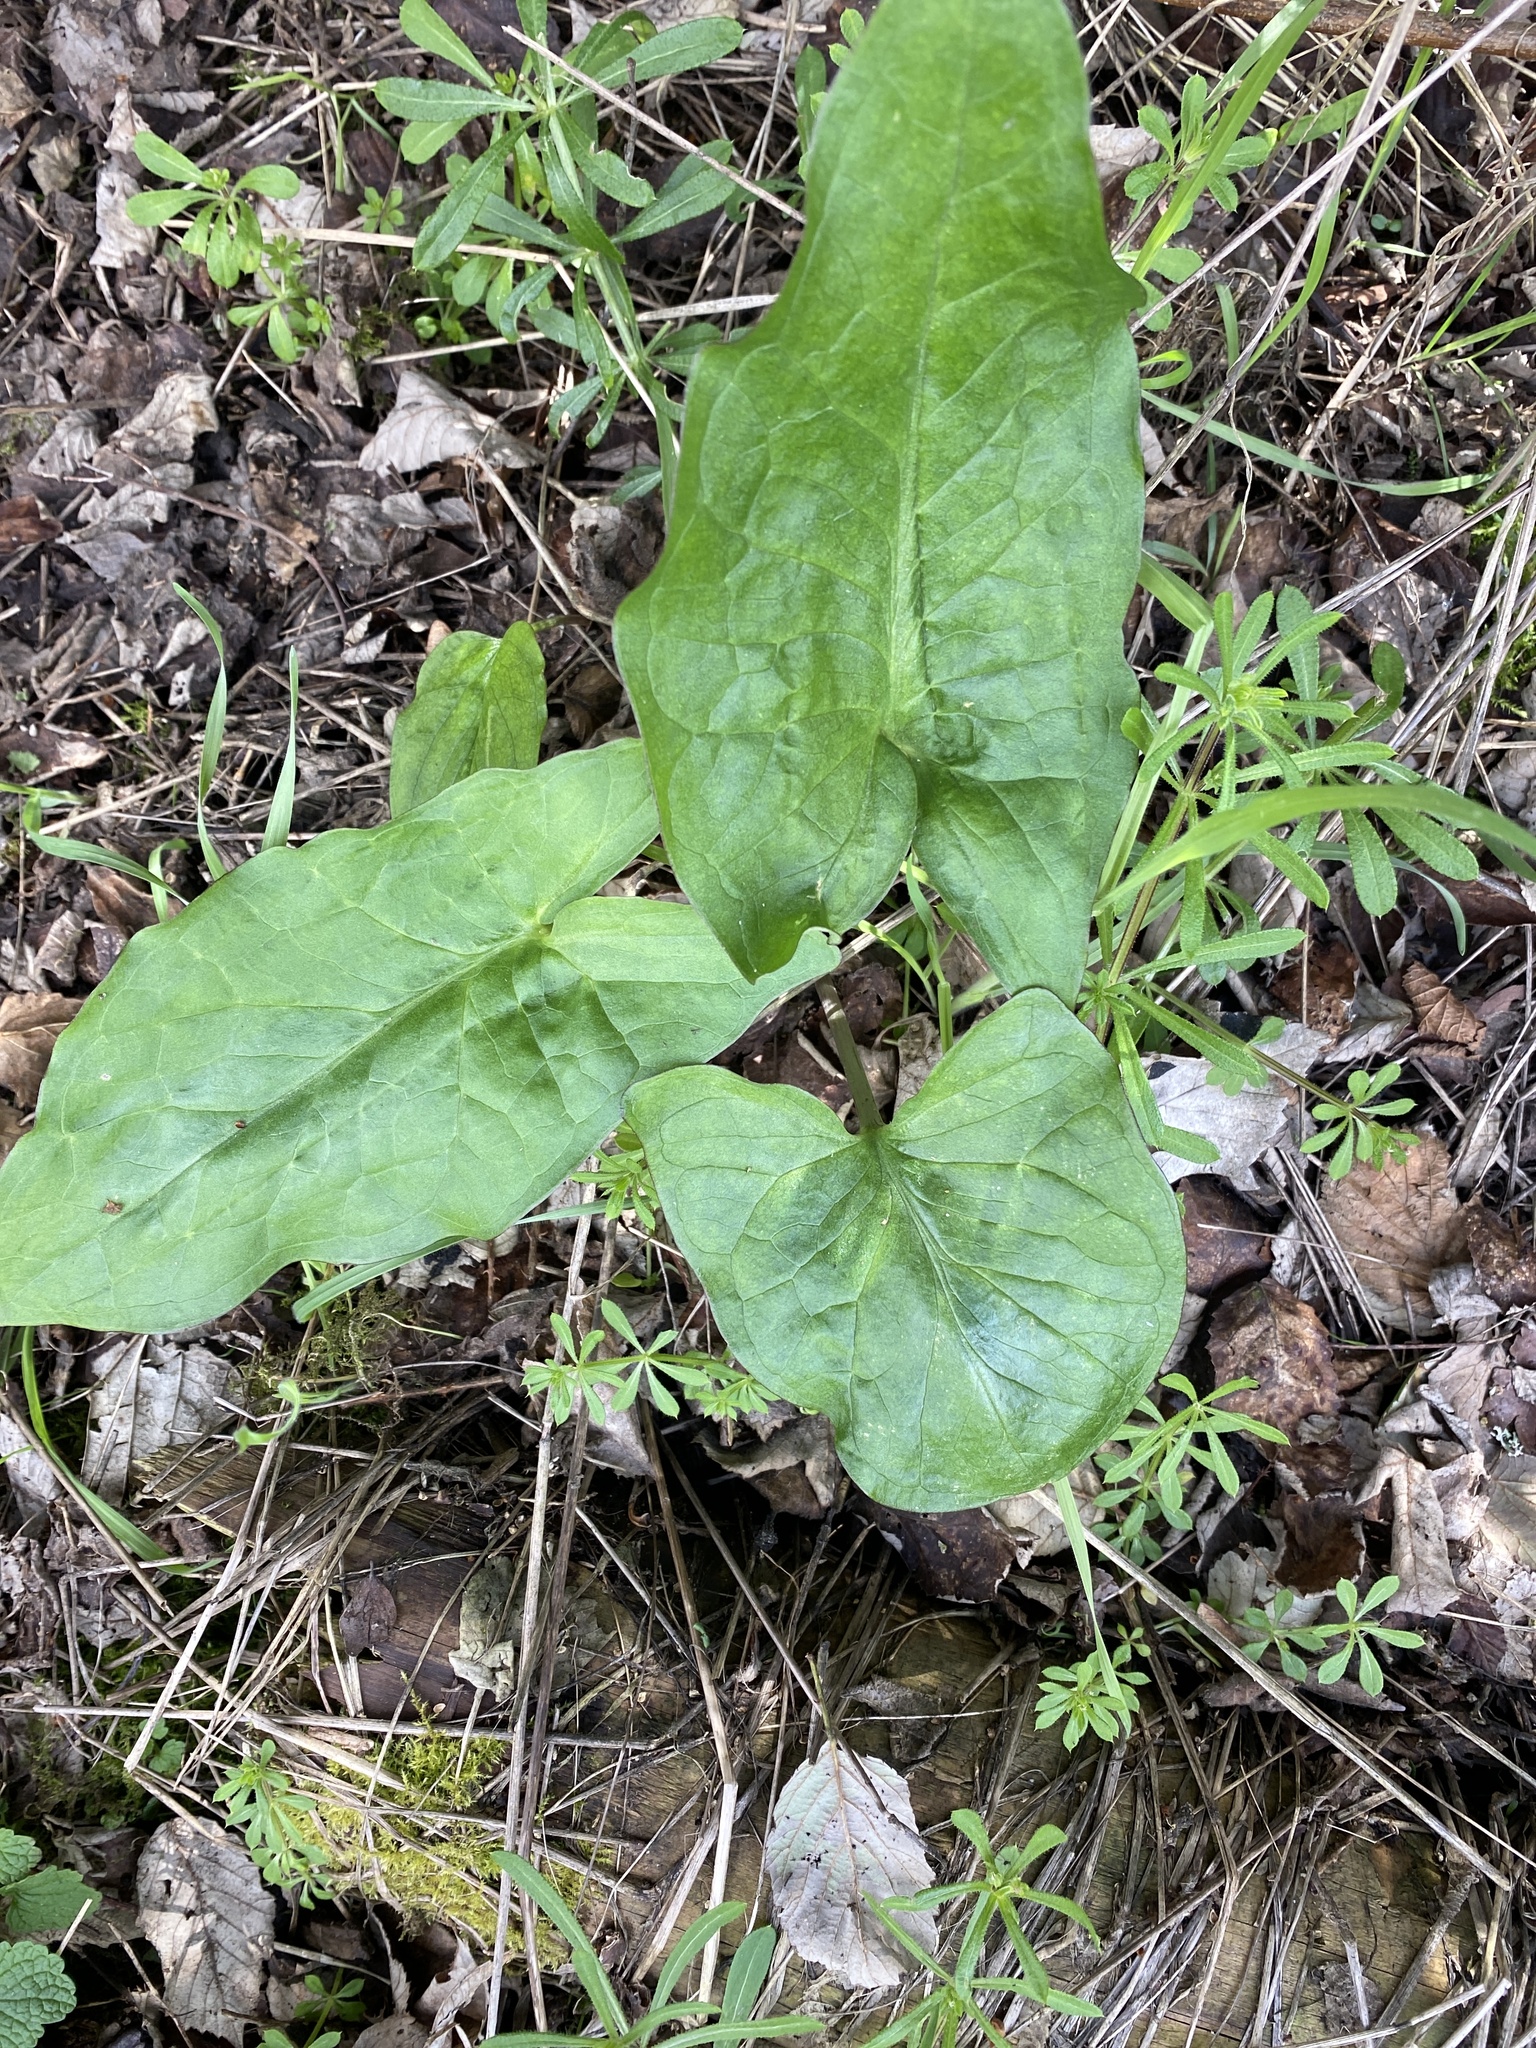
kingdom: Plantae
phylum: Tracheophyta
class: Liliopsida
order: Alismatales
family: Araceae
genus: Arum
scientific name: Arum maculatum
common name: Lords-and-ladies
